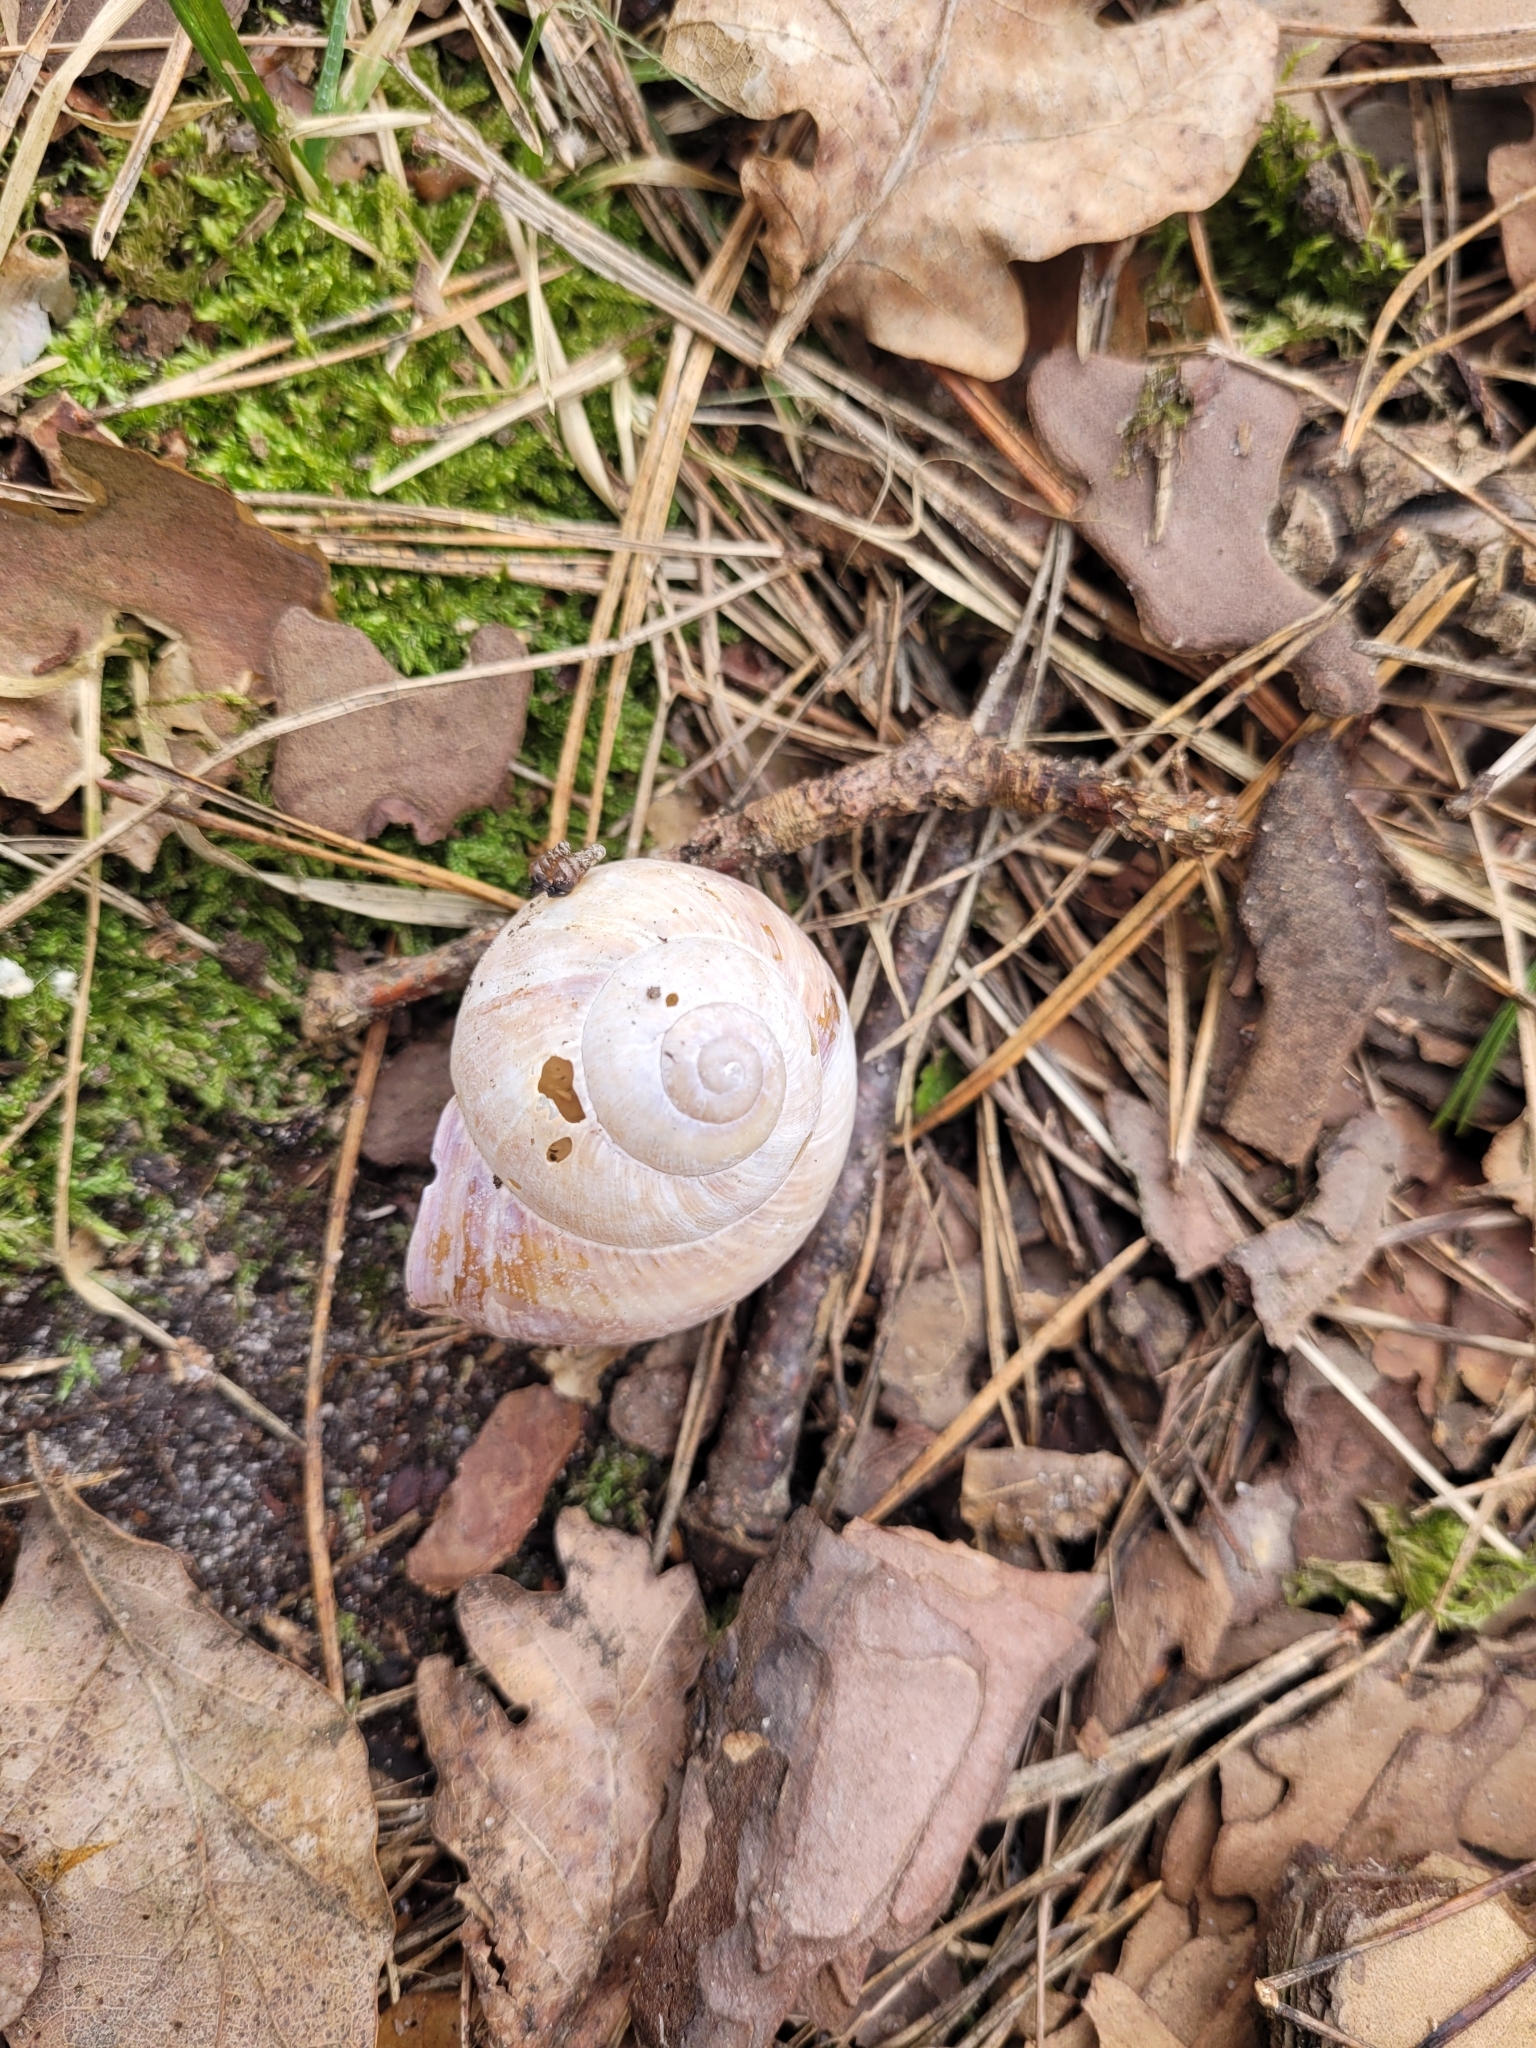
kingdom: Animalia
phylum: Mollusca
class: Gastropoda
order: Stylommatophora
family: Helicidae
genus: Helix
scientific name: Helix pomatia
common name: Roman snail
